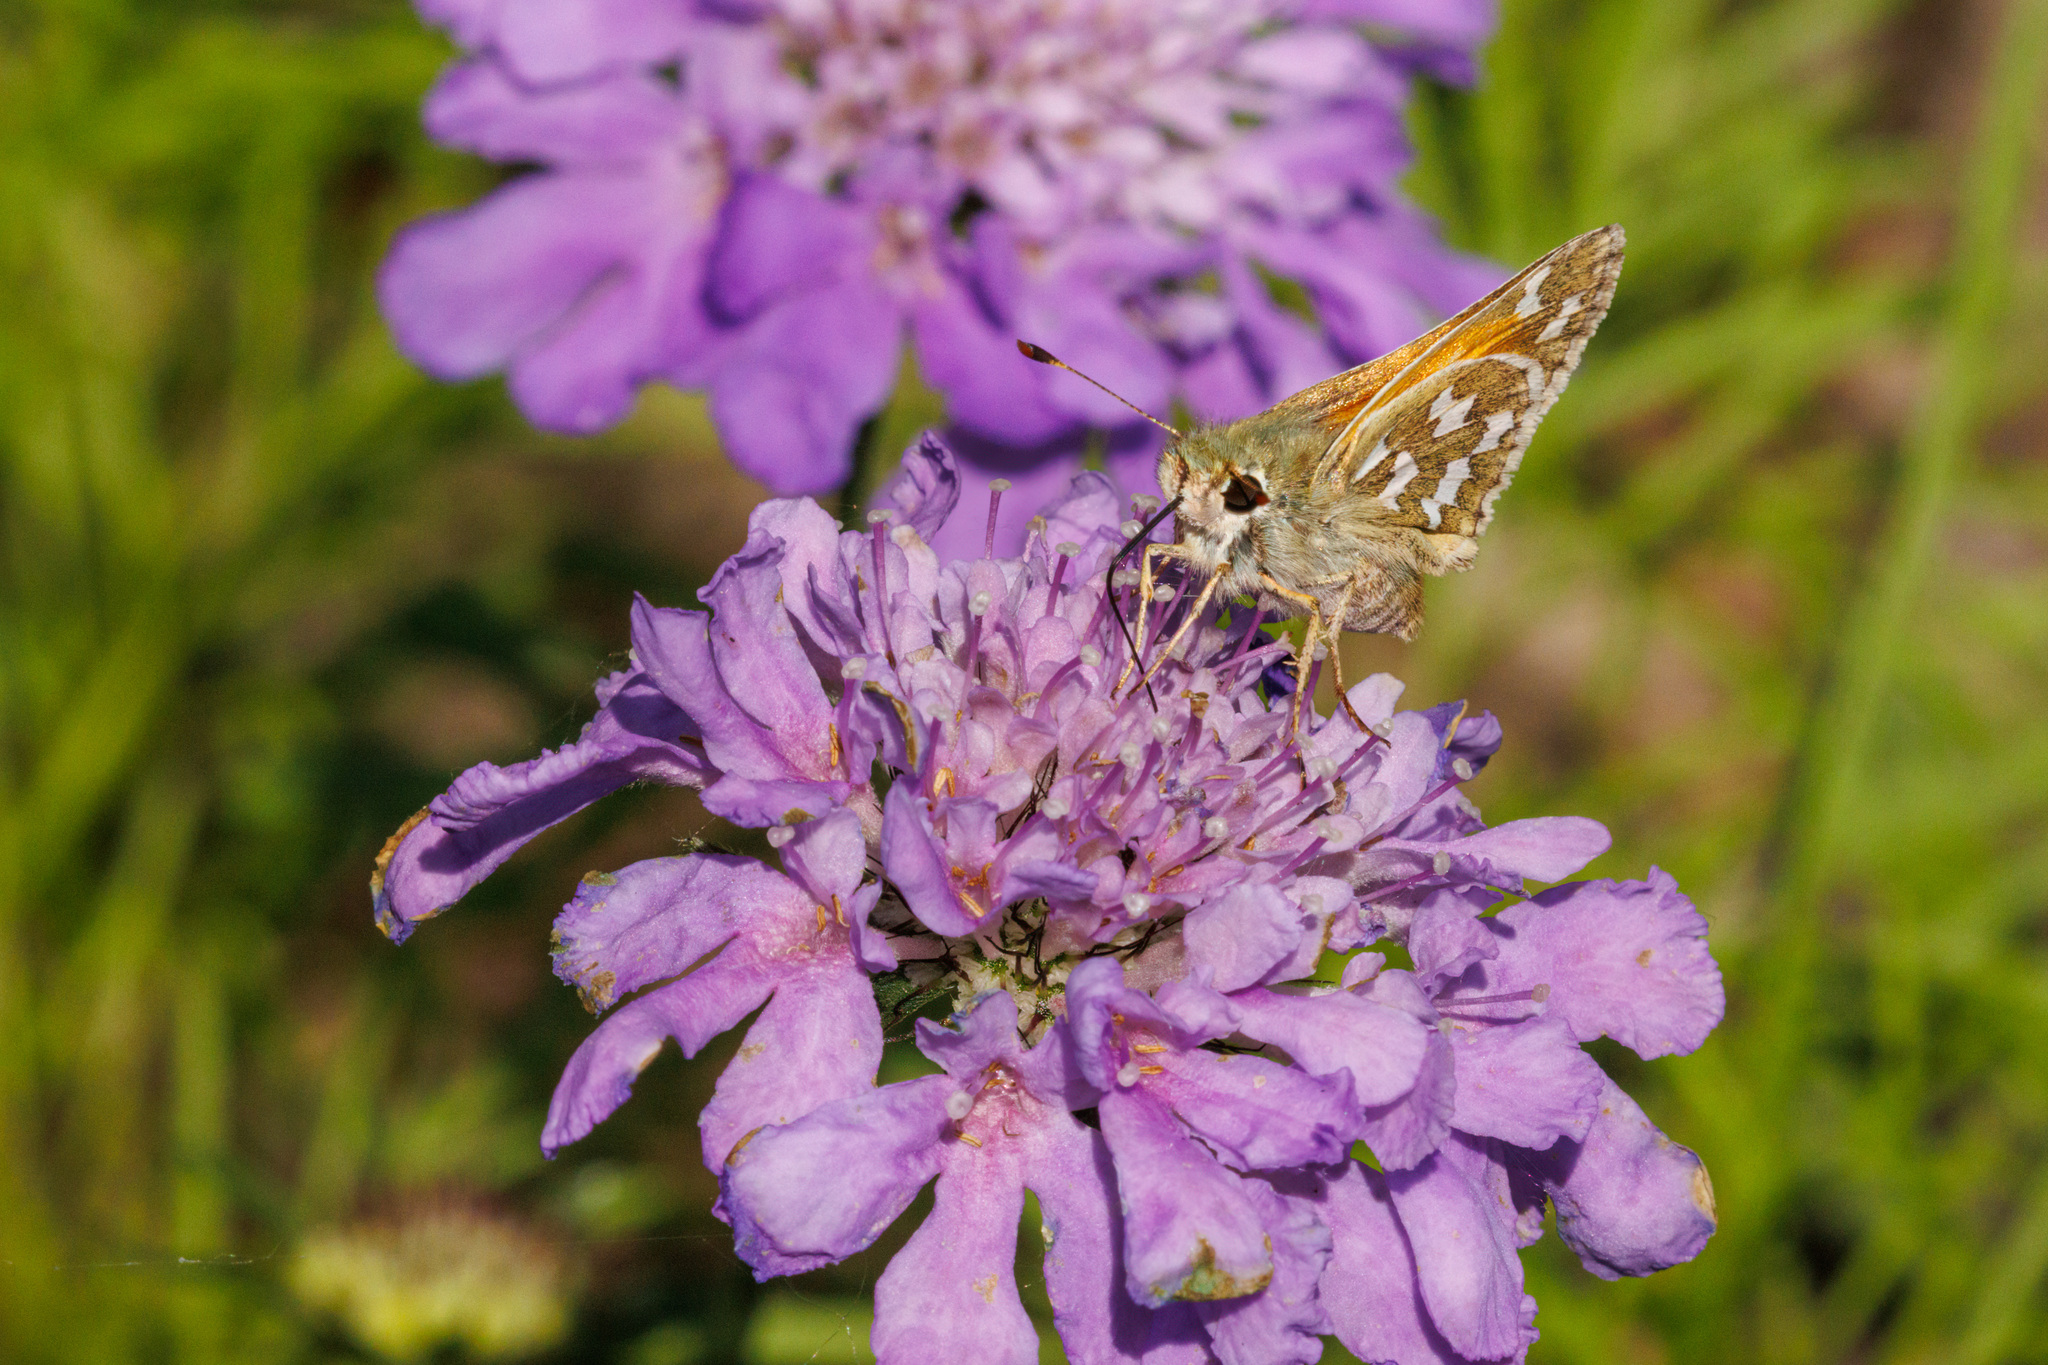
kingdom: Animalia
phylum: Arthropoda
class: Insecta
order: Lepidoptera
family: Hesperiidae
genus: Hesperia
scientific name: Hesperia juba
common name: Juba skipper
